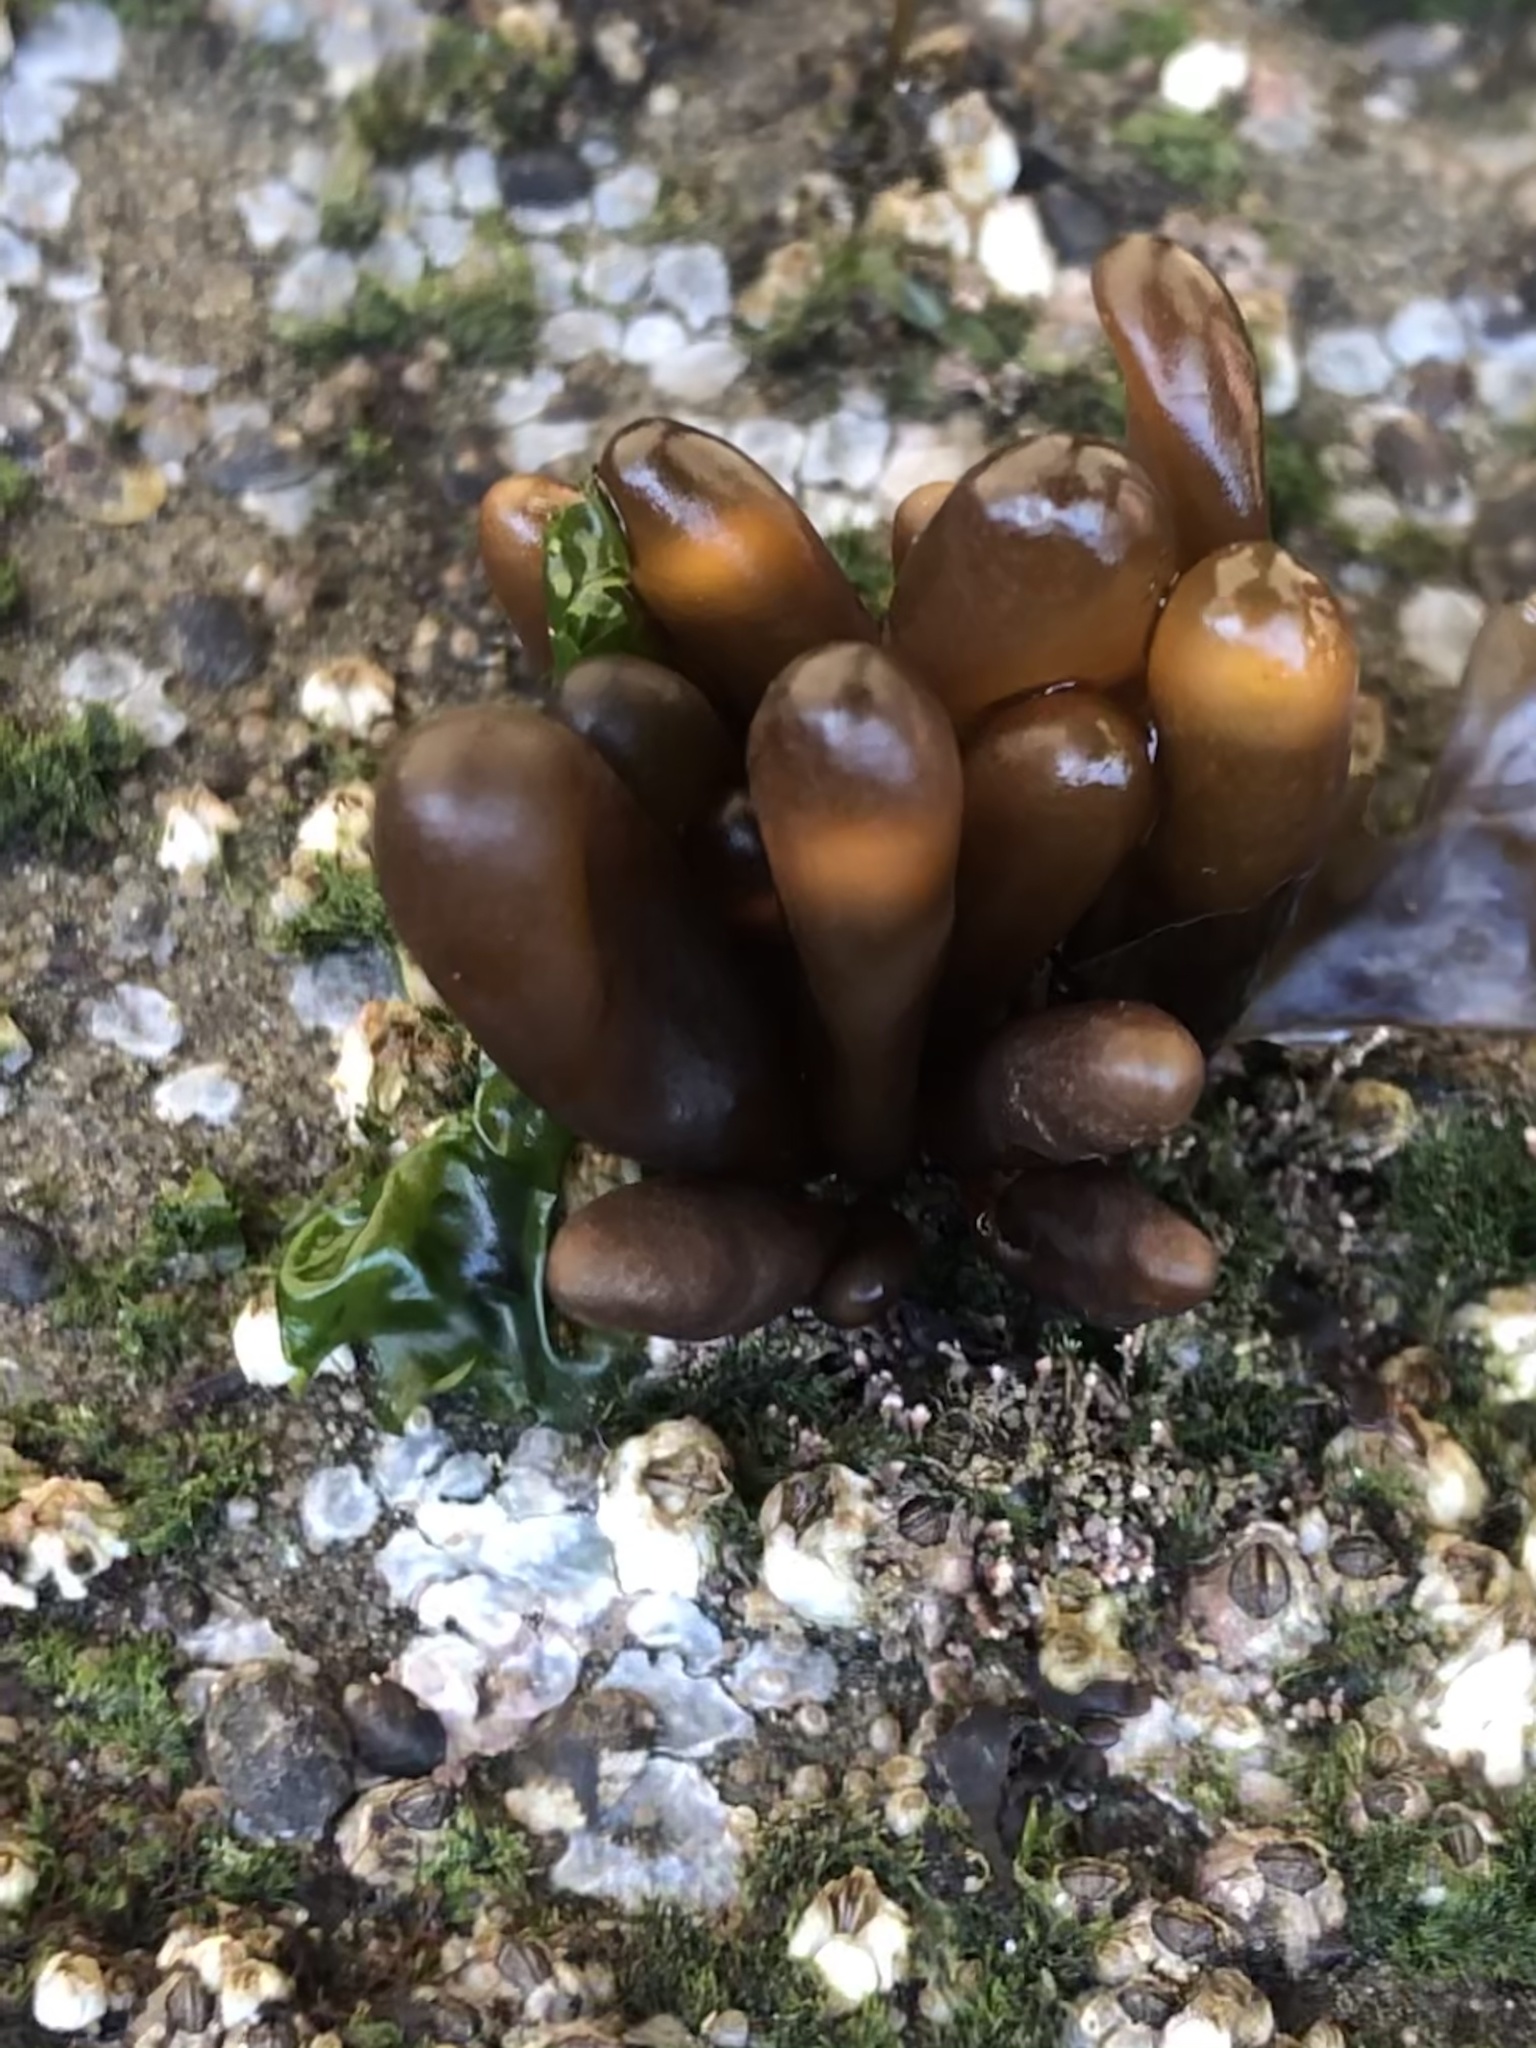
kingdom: Plantae
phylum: Rhodophyta
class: Florideophyceae
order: Palmariales
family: Palmariaceae
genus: Halosaccion
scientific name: Halosaccion glandiforme
